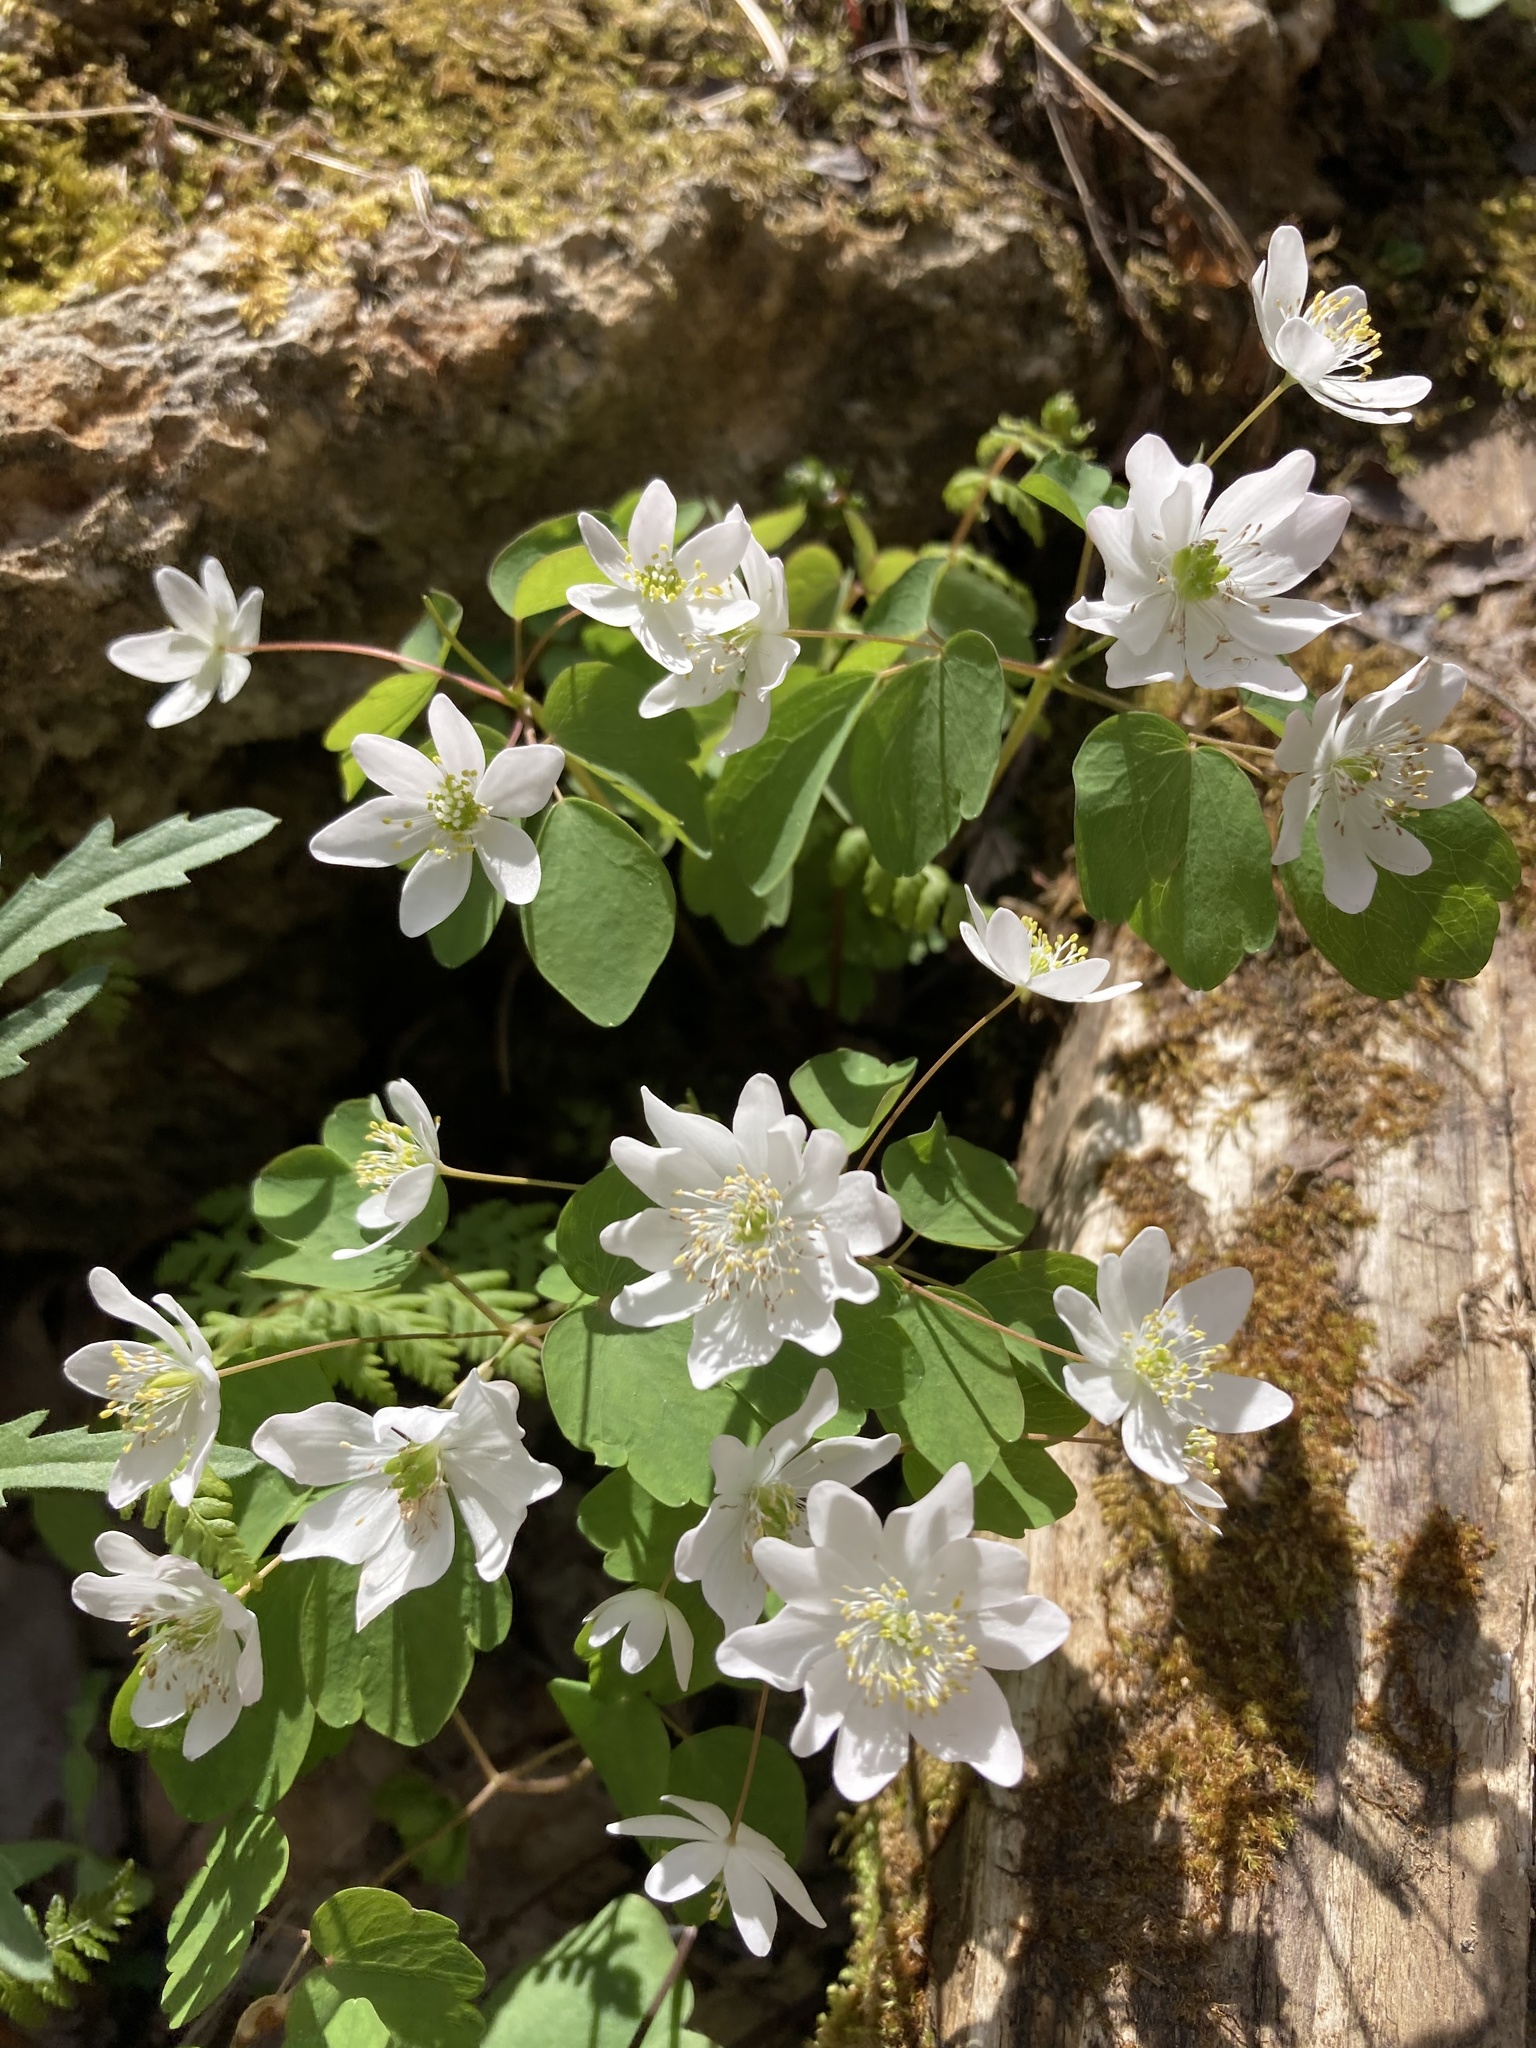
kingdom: Plantae
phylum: Tracheophyta
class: Magnoliopsida
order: Ranunculales
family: Ranunculaceae
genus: Thalictrum
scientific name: Thalictrum thalictroides
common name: Rue-anemone
